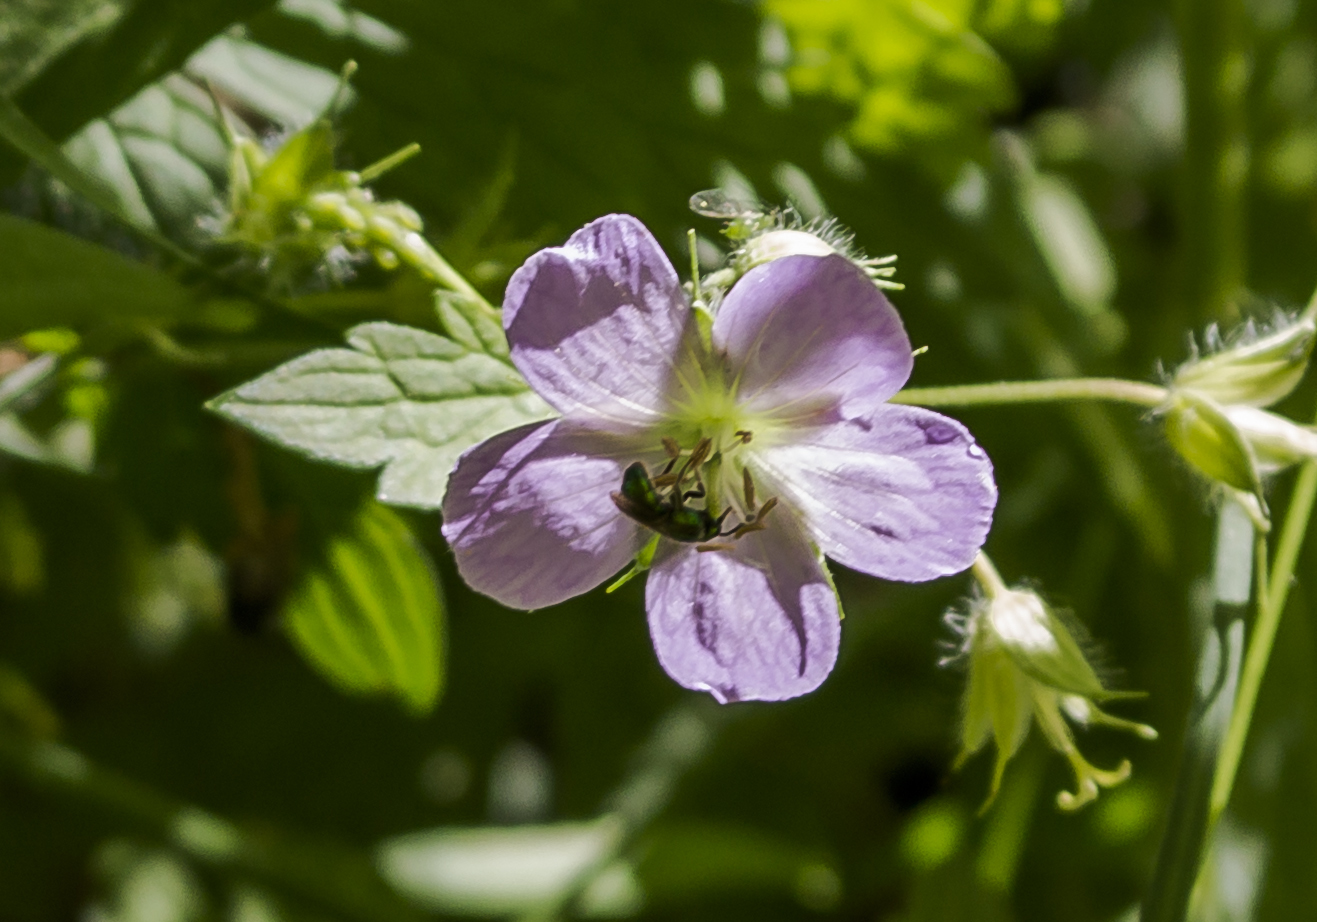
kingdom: Plantae
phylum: Tracheophyta
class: Magnoliopsida
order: Geraniales
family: Geraniaceae
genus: Geranium
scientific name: Geranium maculatum
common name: Spotted geranium
